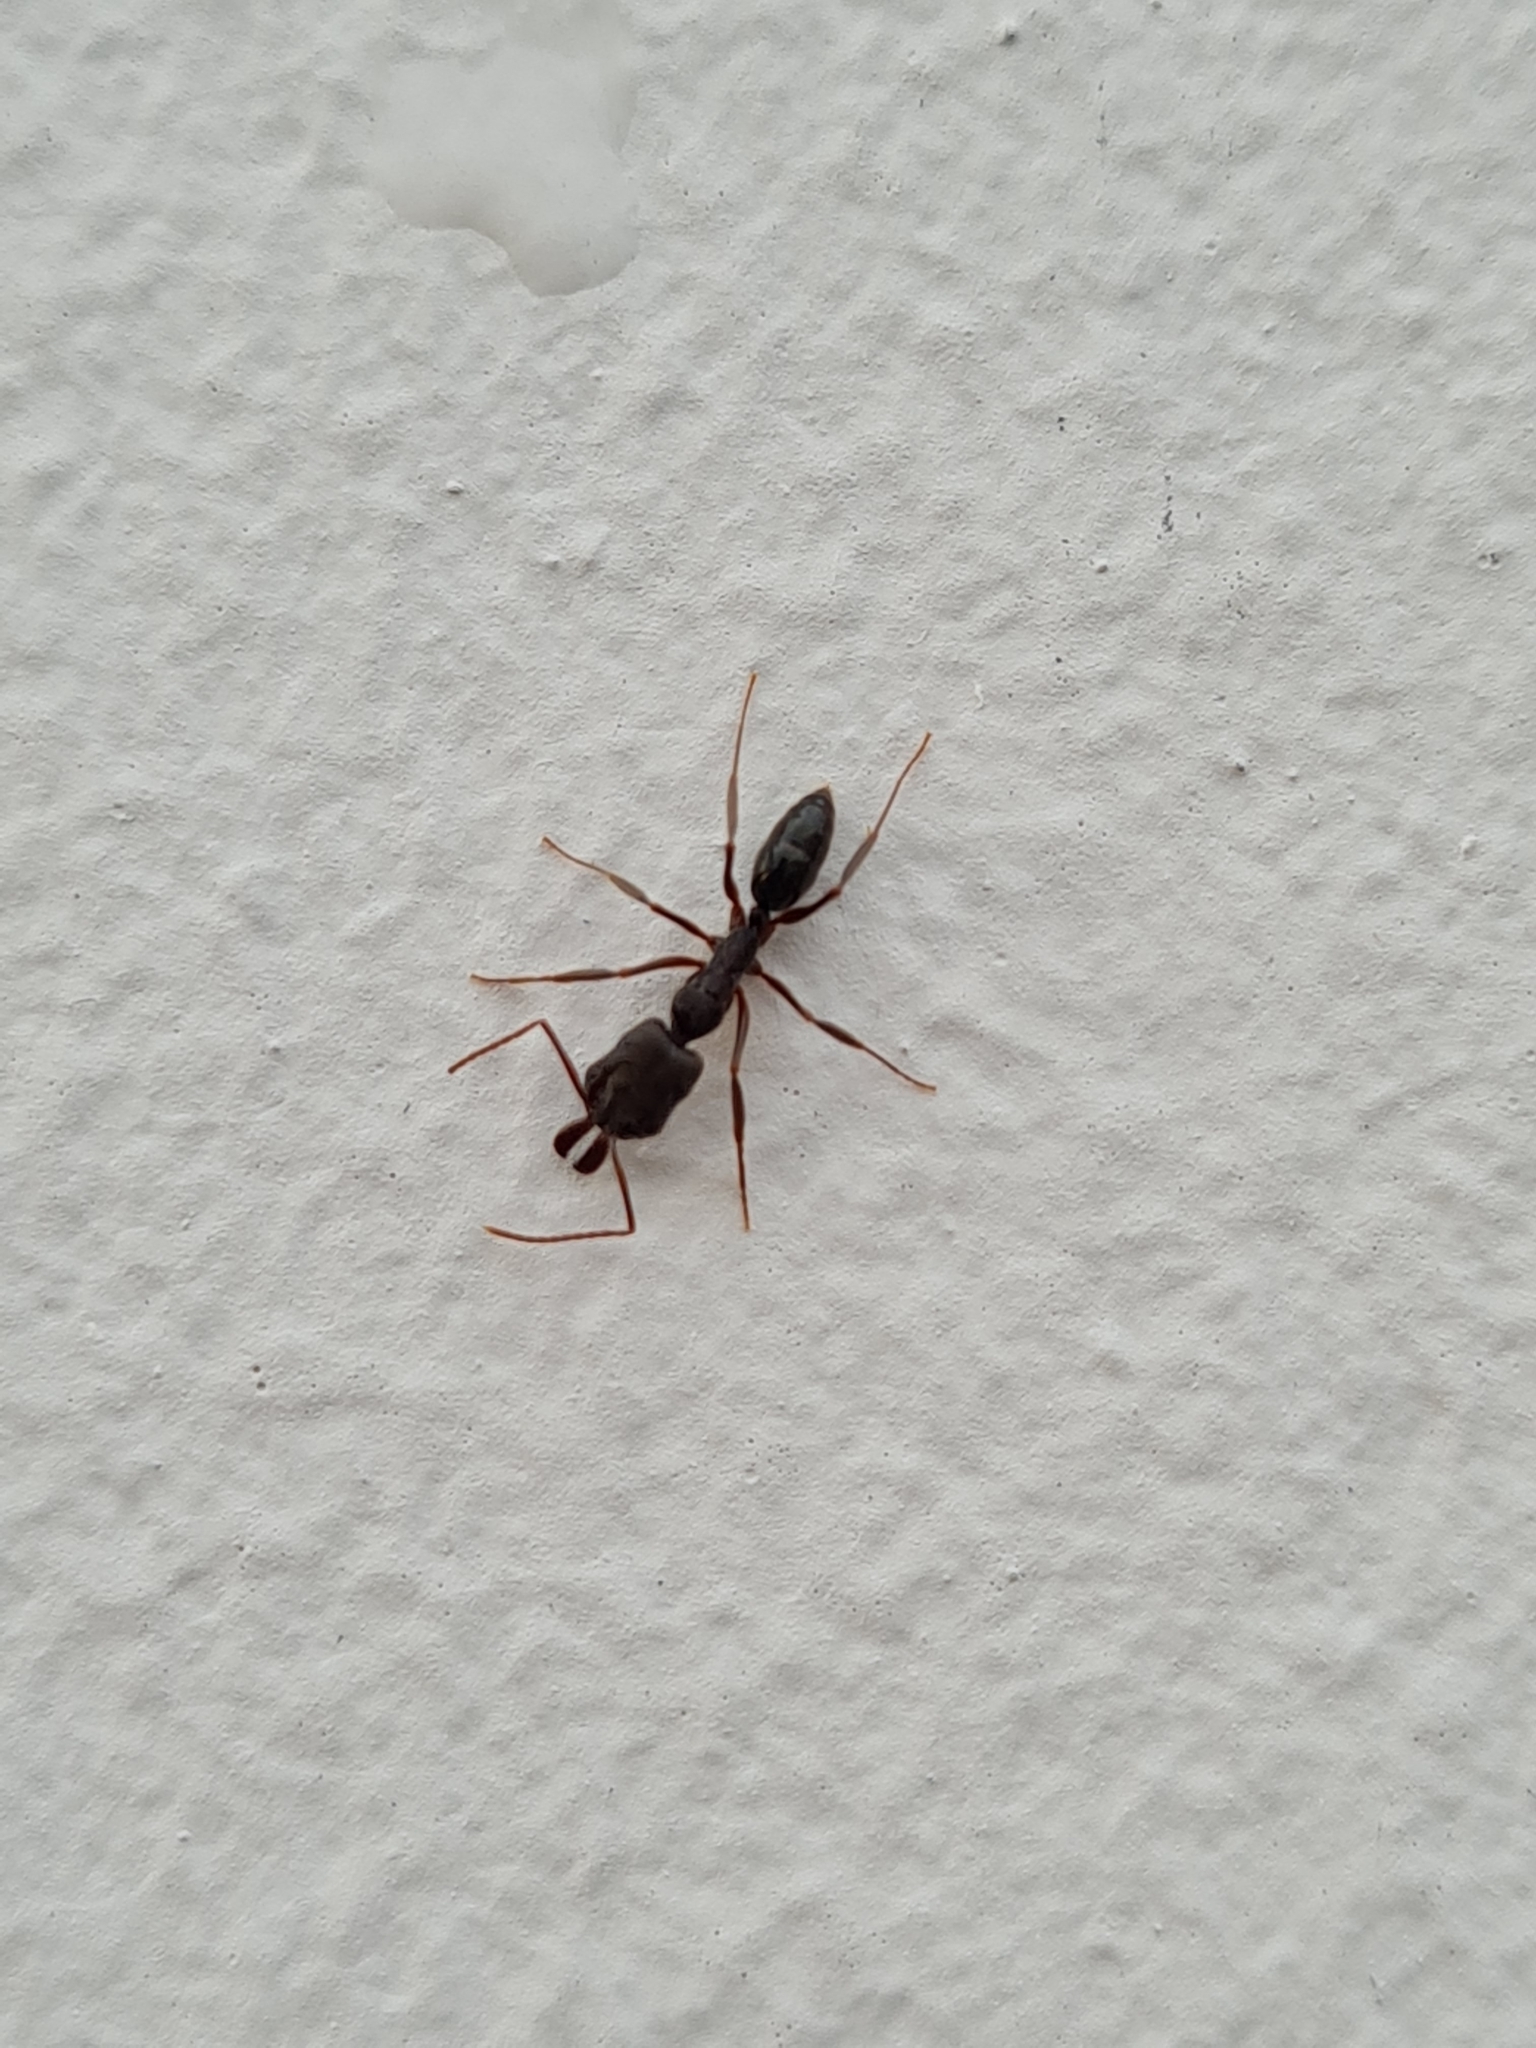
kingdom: Animalia
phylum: Arthropoda
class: Insecta
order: Hymenoptera
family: Formicidae
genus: Odontomachus
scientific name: Odontomachus bauri
